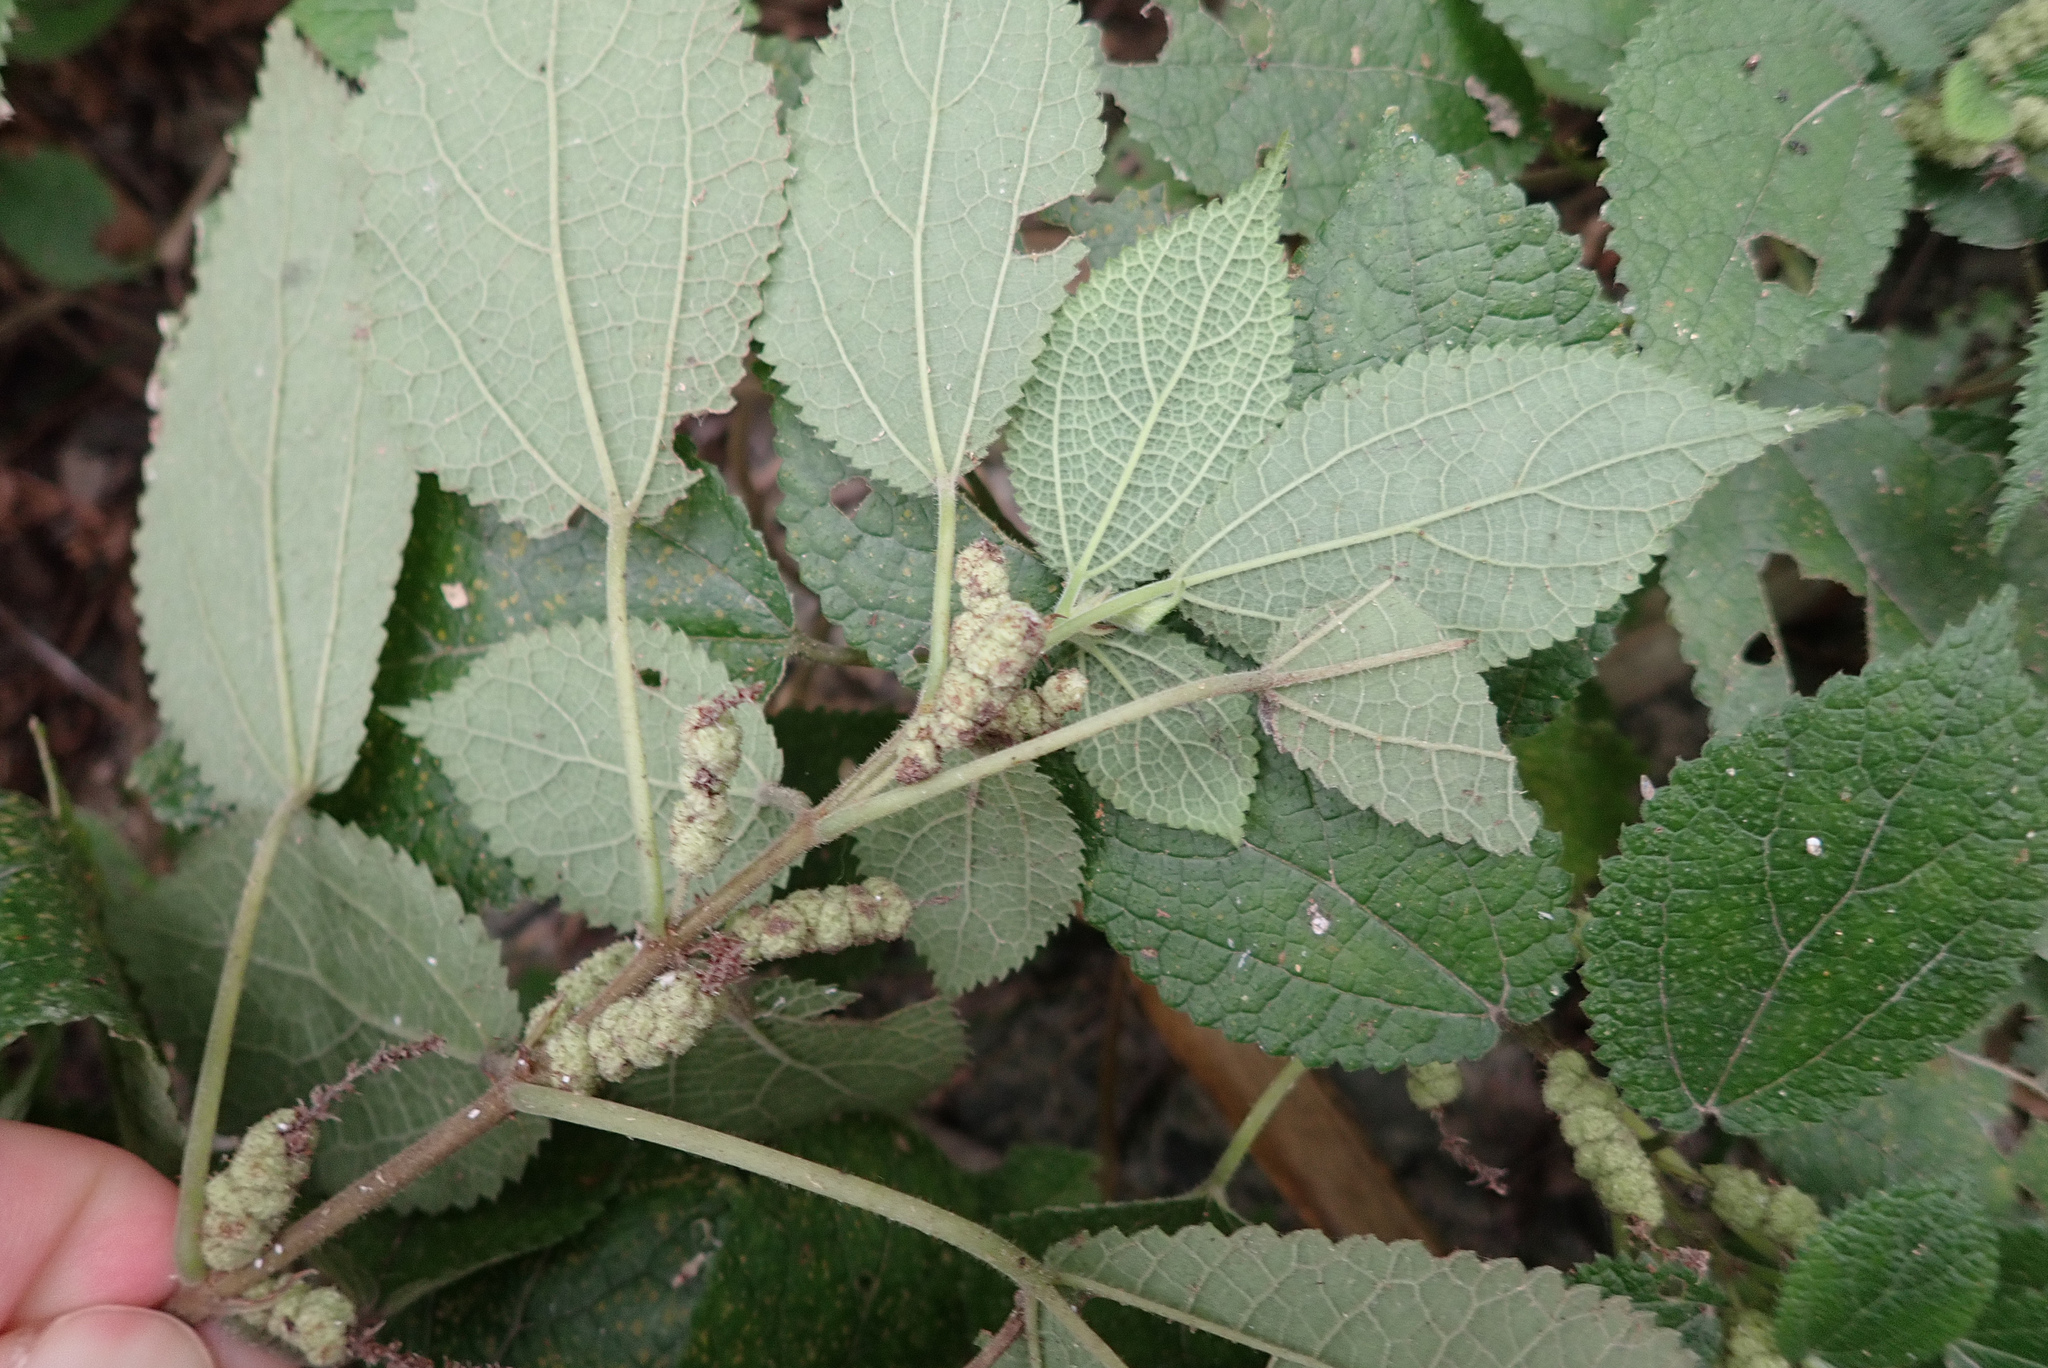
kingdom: Plantae
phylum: Tracheophyta
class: Magnoliopsida
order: Rosales
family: Urticaceae
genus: Boehmeria
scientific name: Boehmeria pilosiuscula
